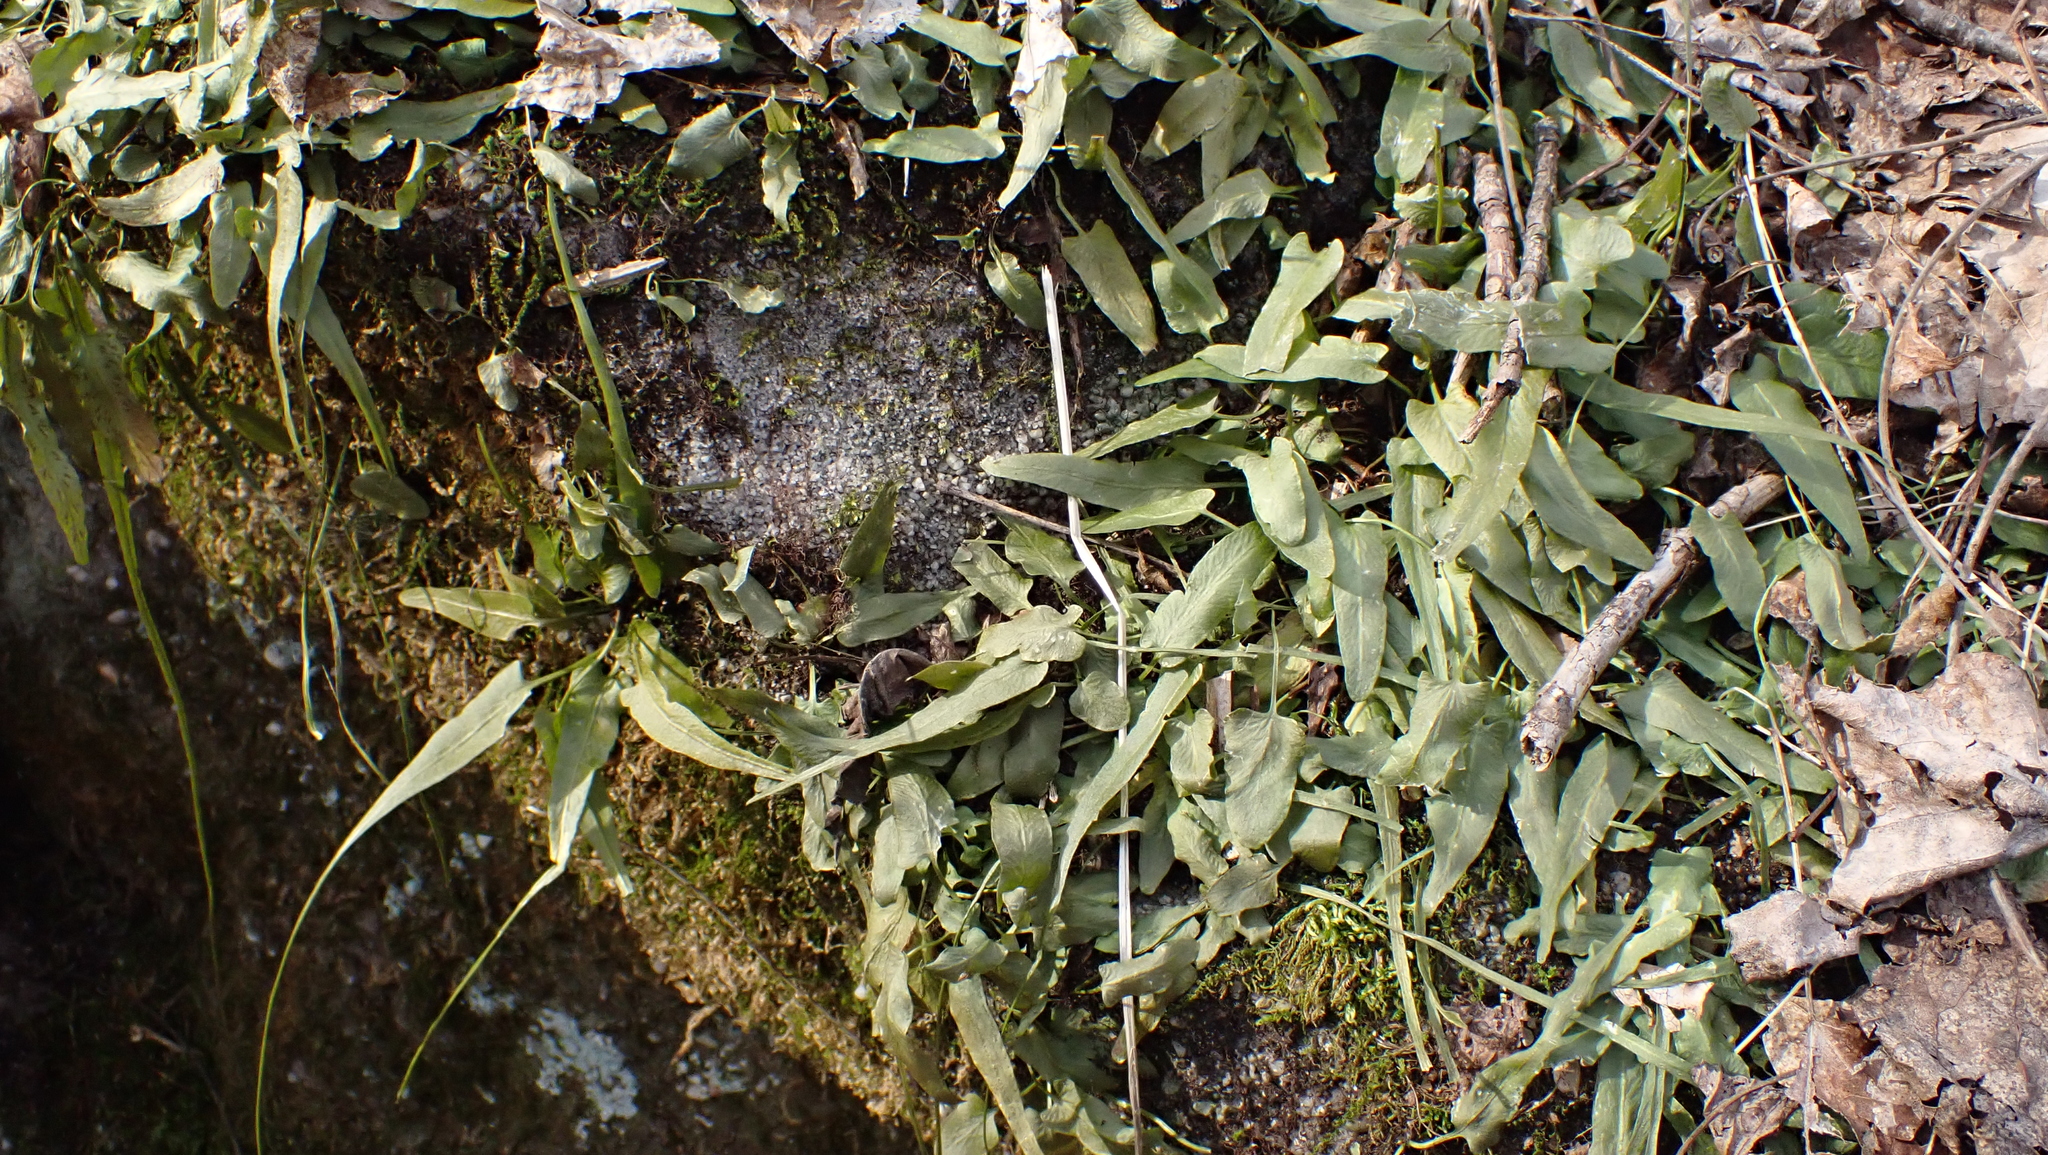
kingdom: Plantae
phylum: Tracheophyta
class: Polypodiopsida
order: Polypodiales
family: Aspleniaceae
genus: Asplenium
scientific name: Asplenium rhizophyllum
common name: Walking fern
